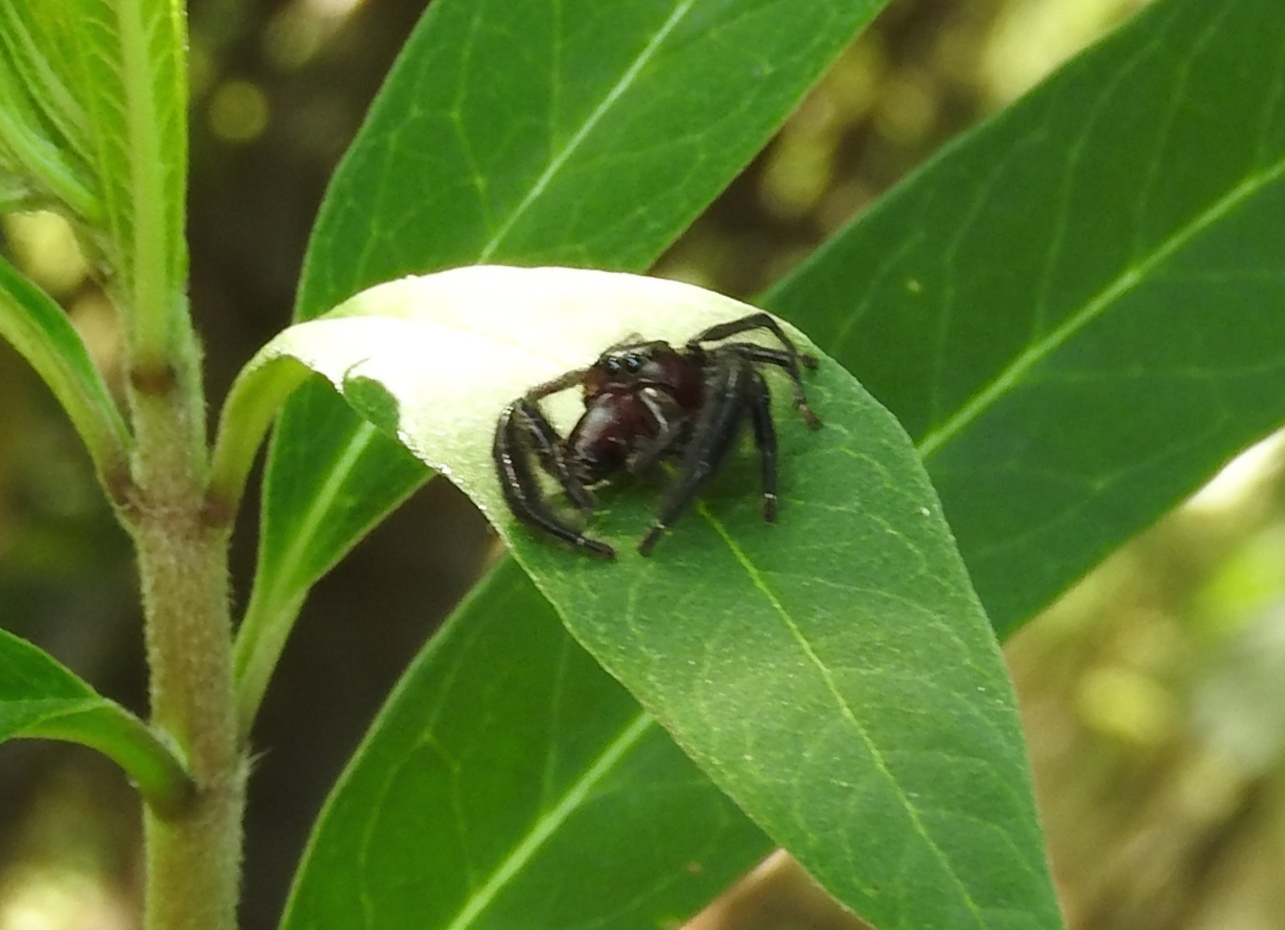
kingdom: Animalia
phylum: Arthropoda
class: Arachnida
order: Araneae
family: Salticidae
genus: Paraphidippus
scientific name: Paraphidippus fartilis
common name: Jumping spiders
